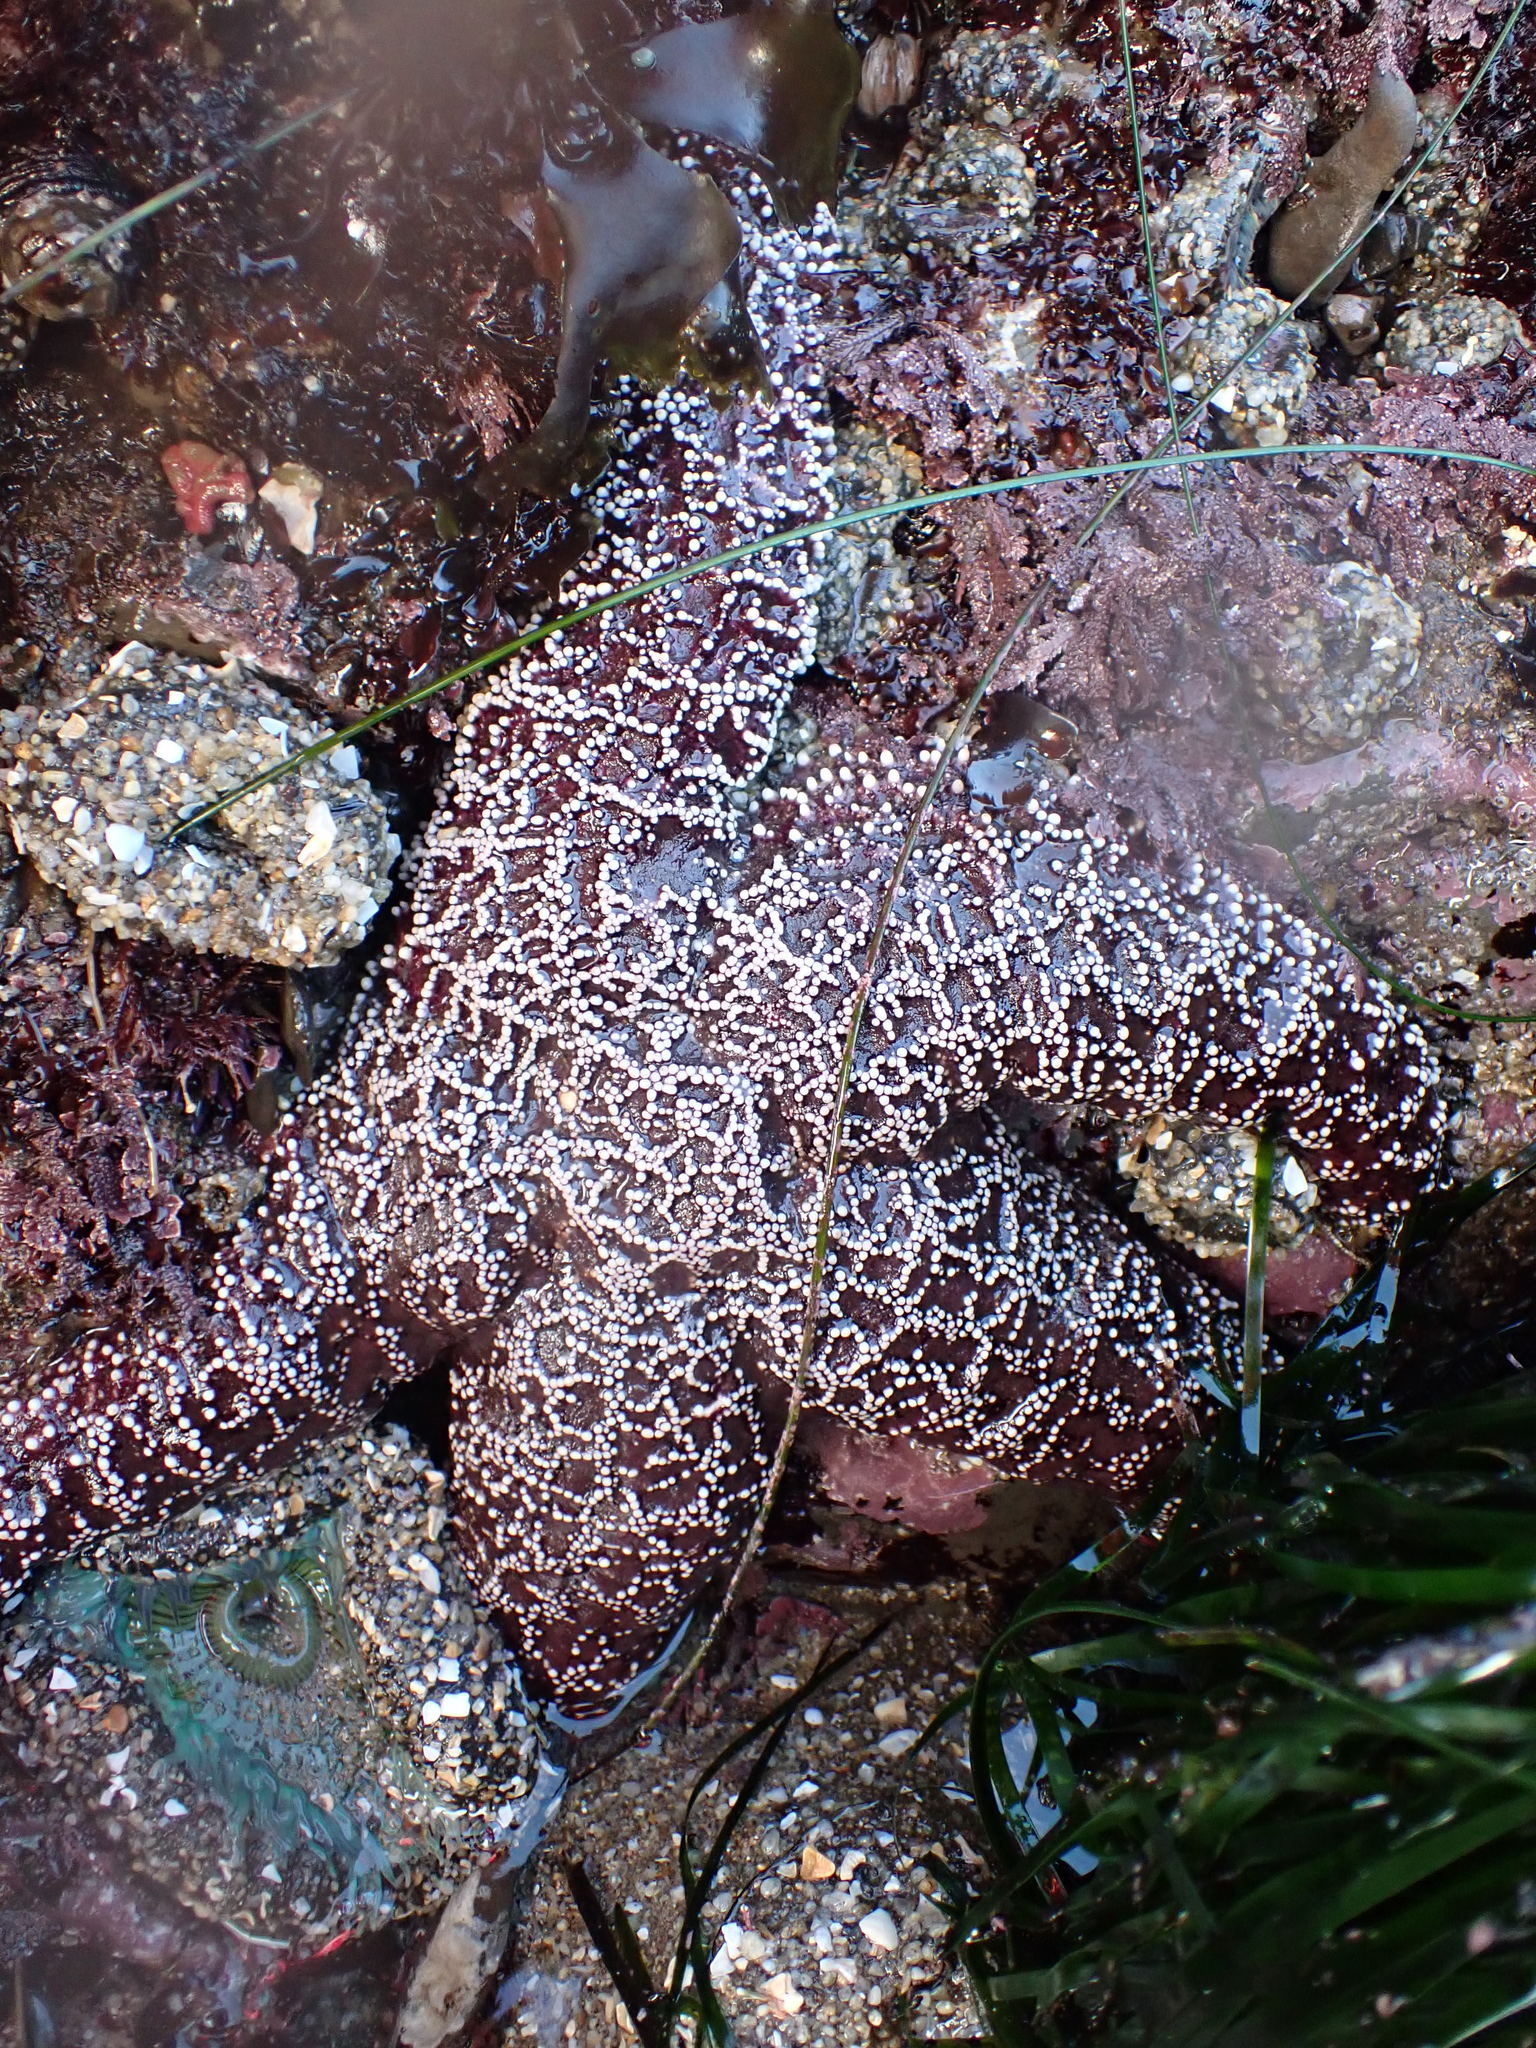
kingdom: Animalia
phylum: Echinodermata
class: Asteroidea
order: Forcipulatida
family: Asteriidae
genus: Pisaster
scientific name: Pisaster ochraceus
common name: Ochre stars
